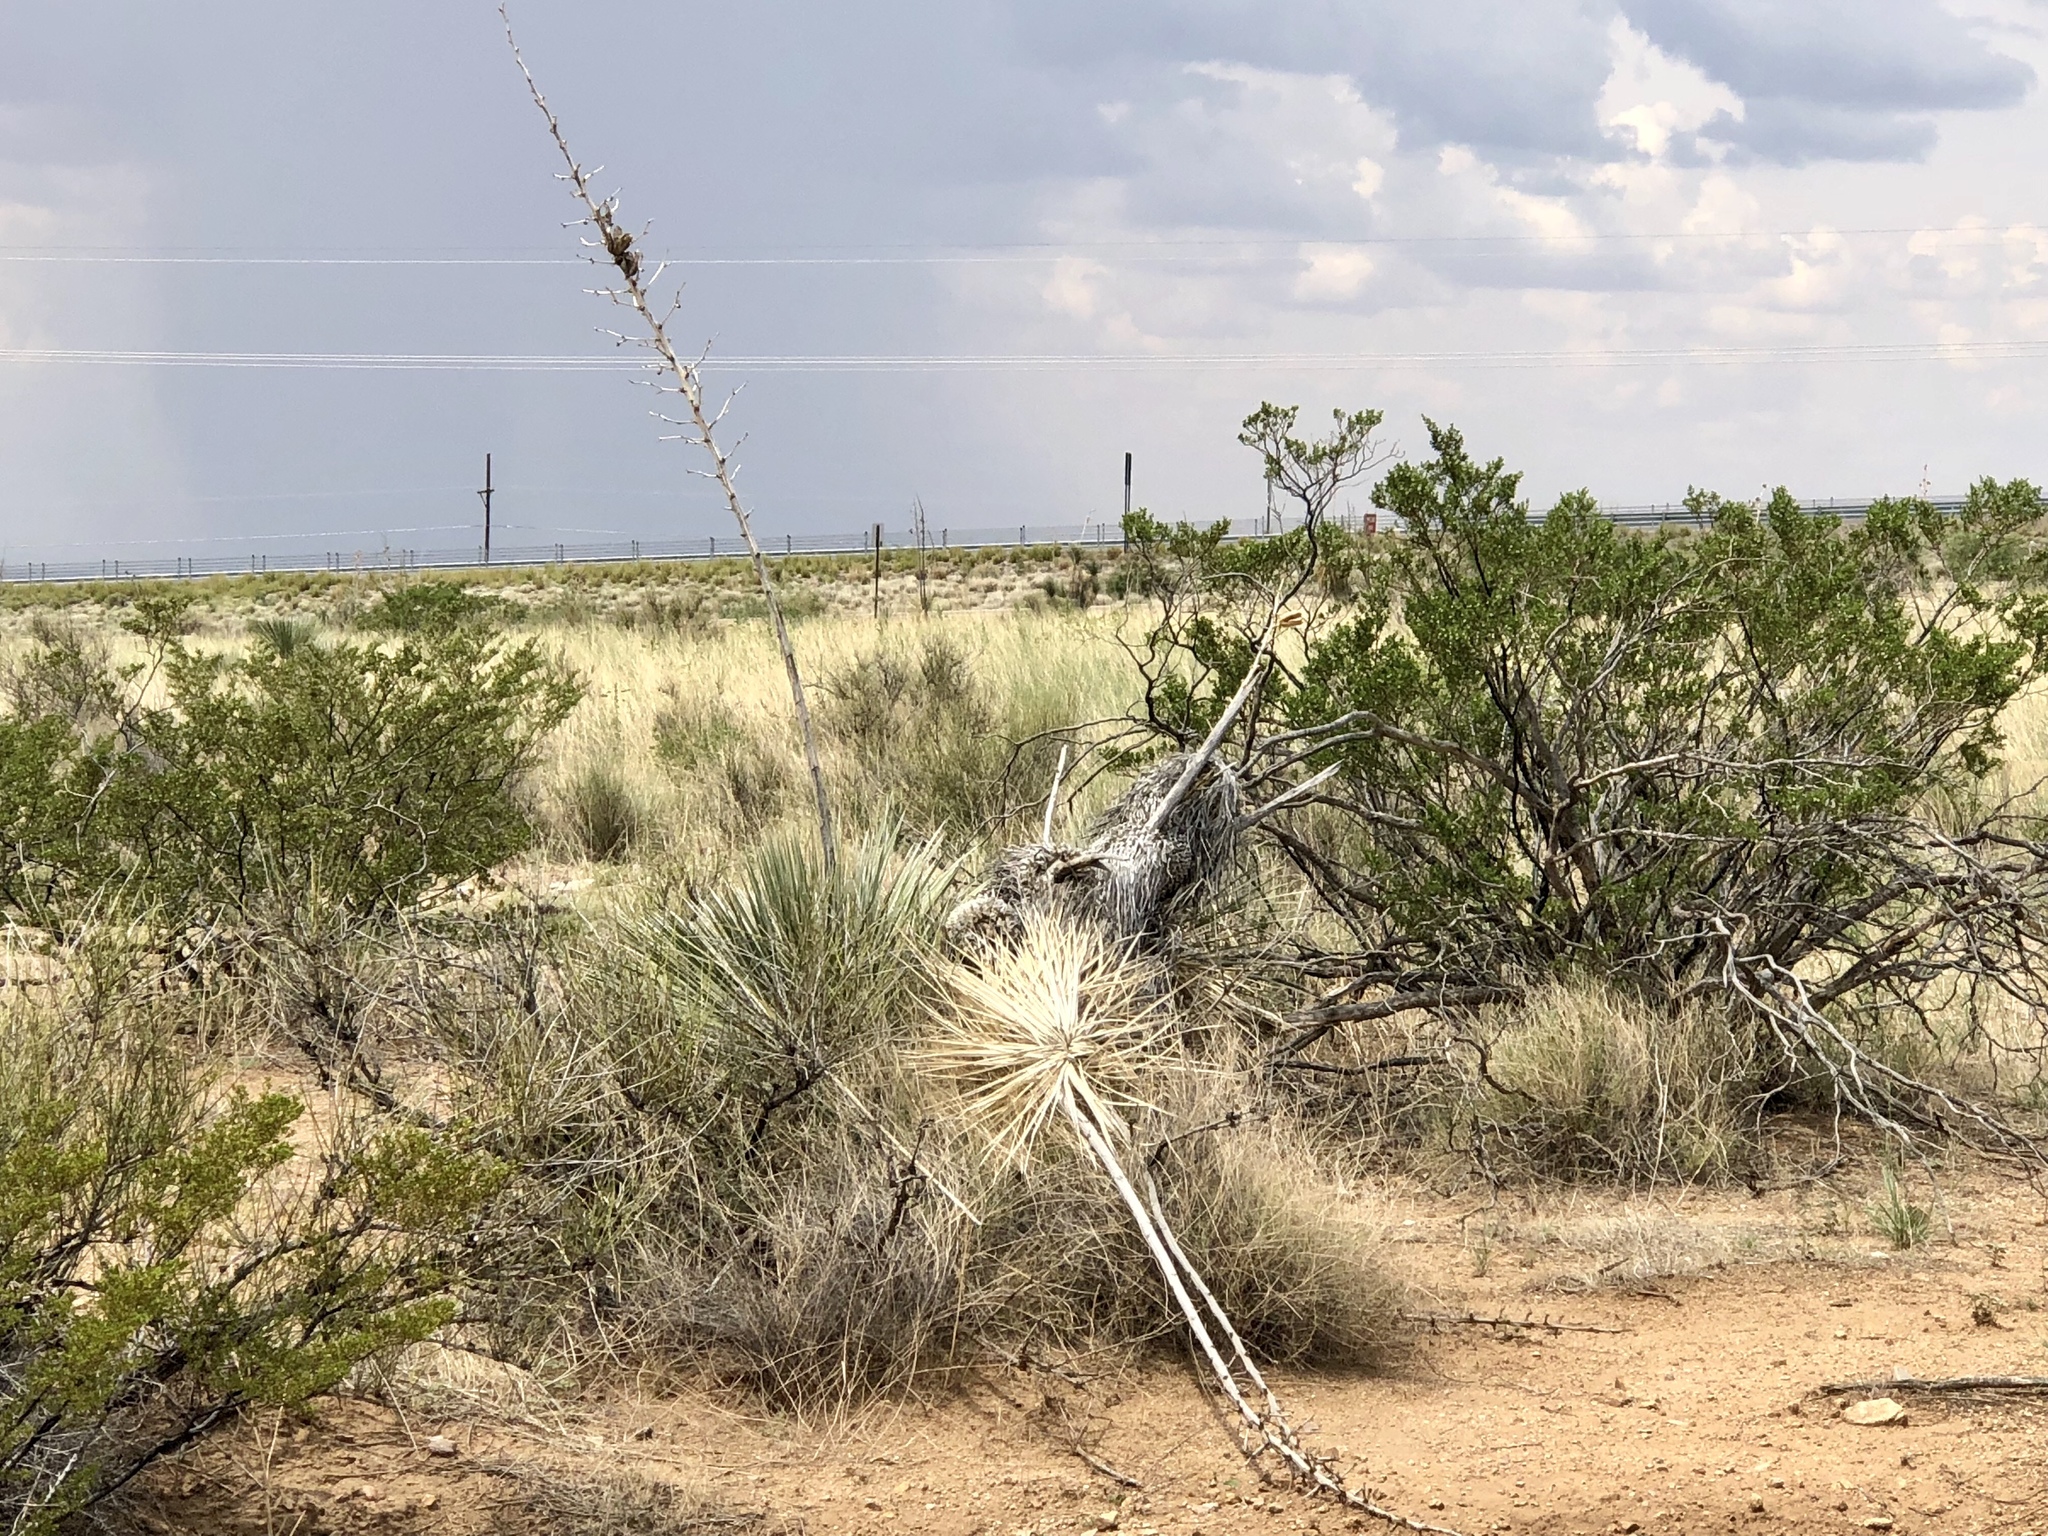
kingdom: Plantae
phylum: Tracheophyta
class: Liliopsida
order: Asparagales
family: Asparagaceae
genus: Yucca
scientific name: Yucca elata
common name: Palmella
